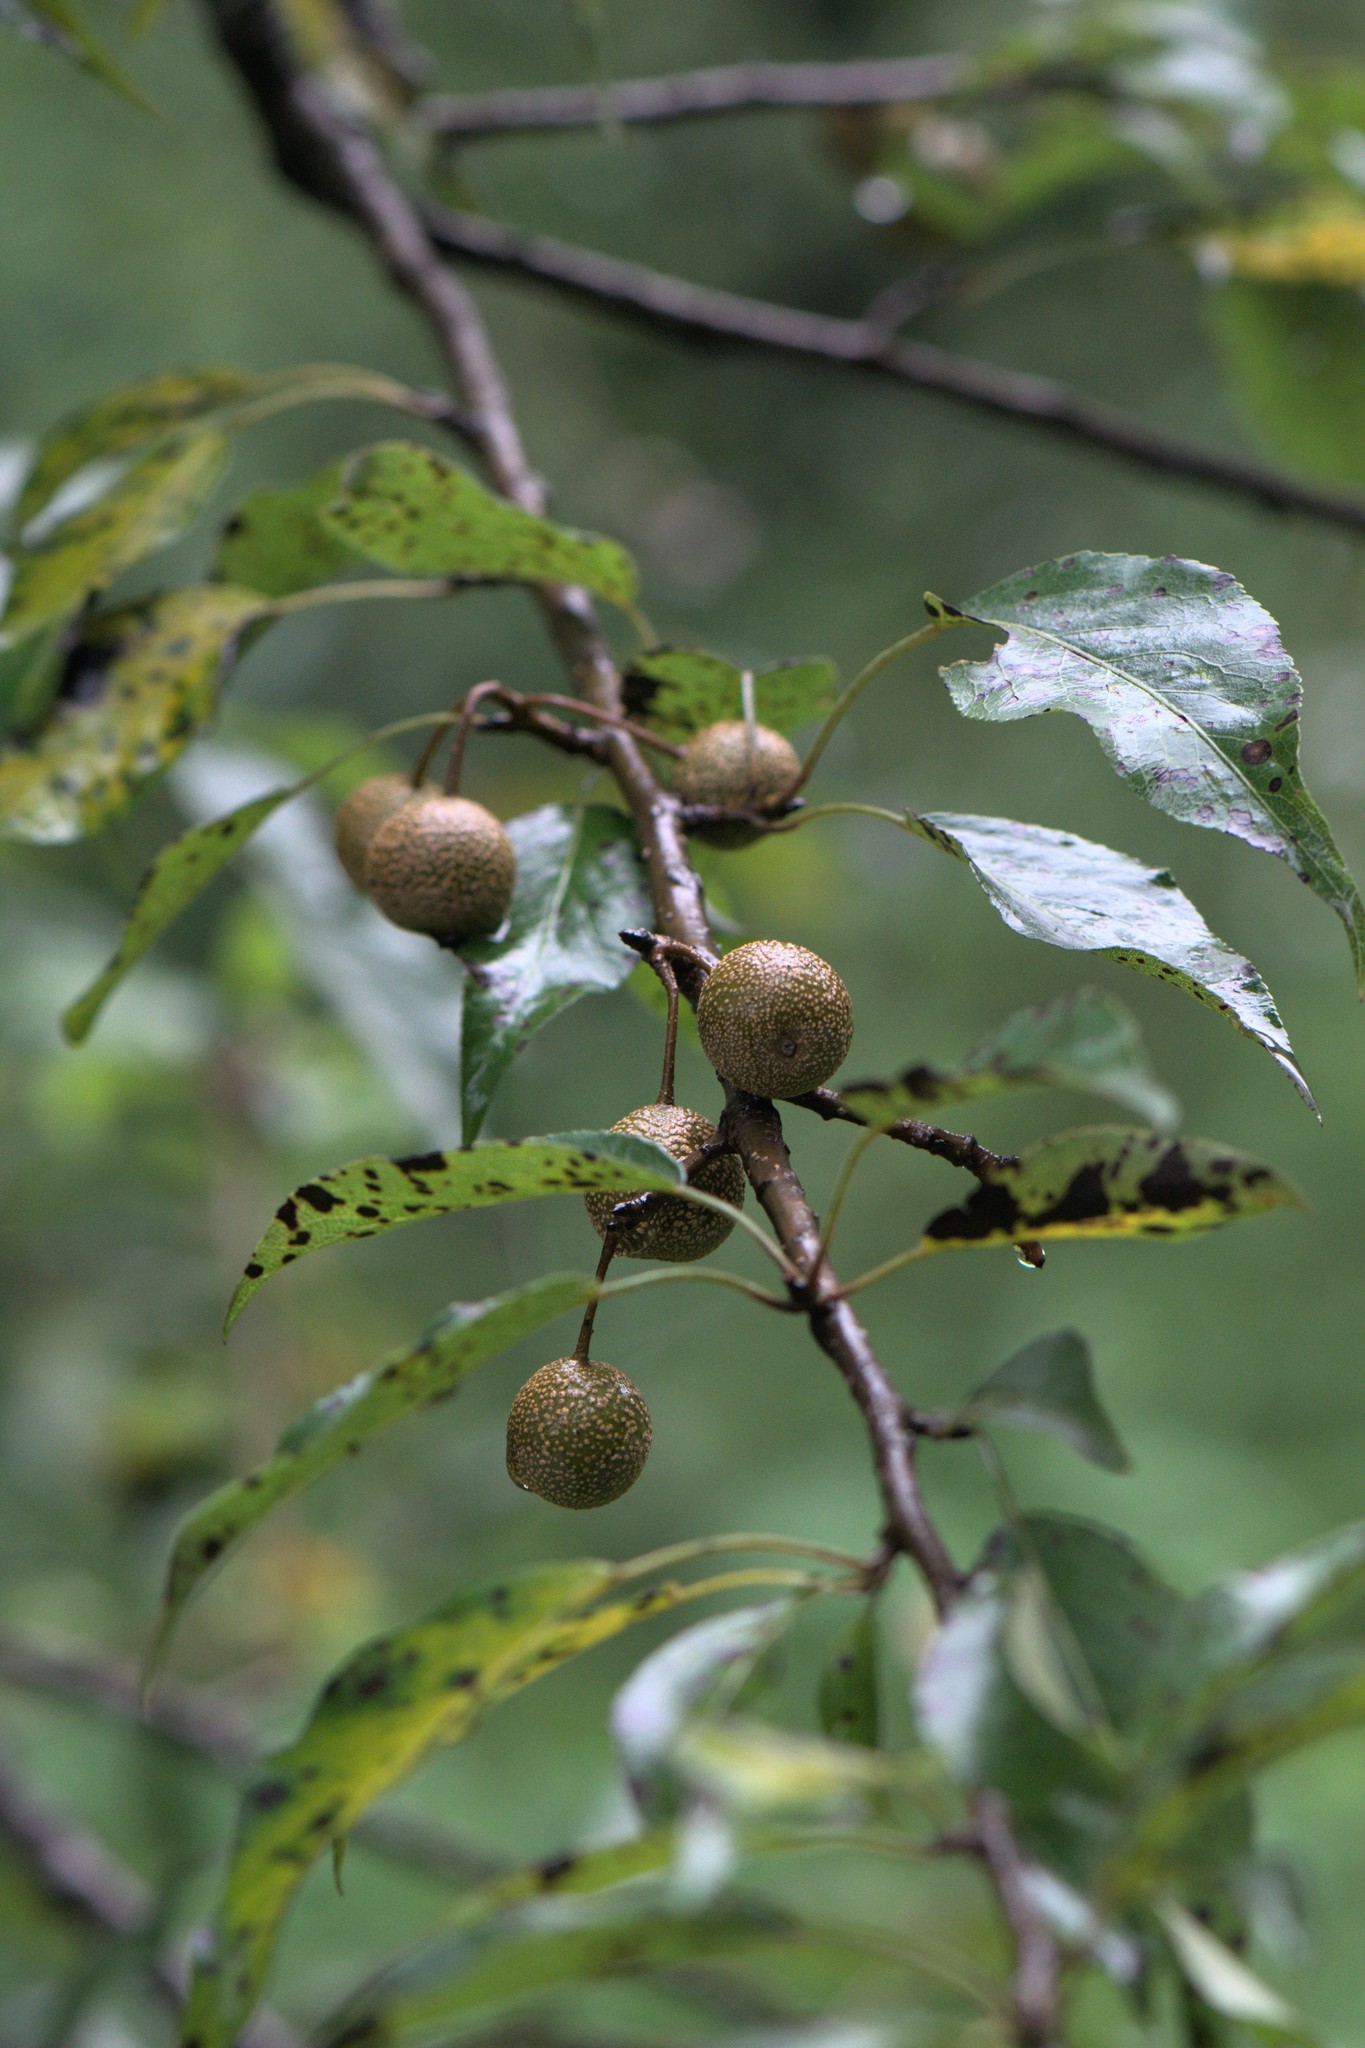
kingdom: Plantae
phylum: Tracheophyta
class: Magnoliopsida
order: Rosales
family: Rosaceae
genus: Pyrus
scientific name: Pyrus pashia
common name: Himalayan pear
